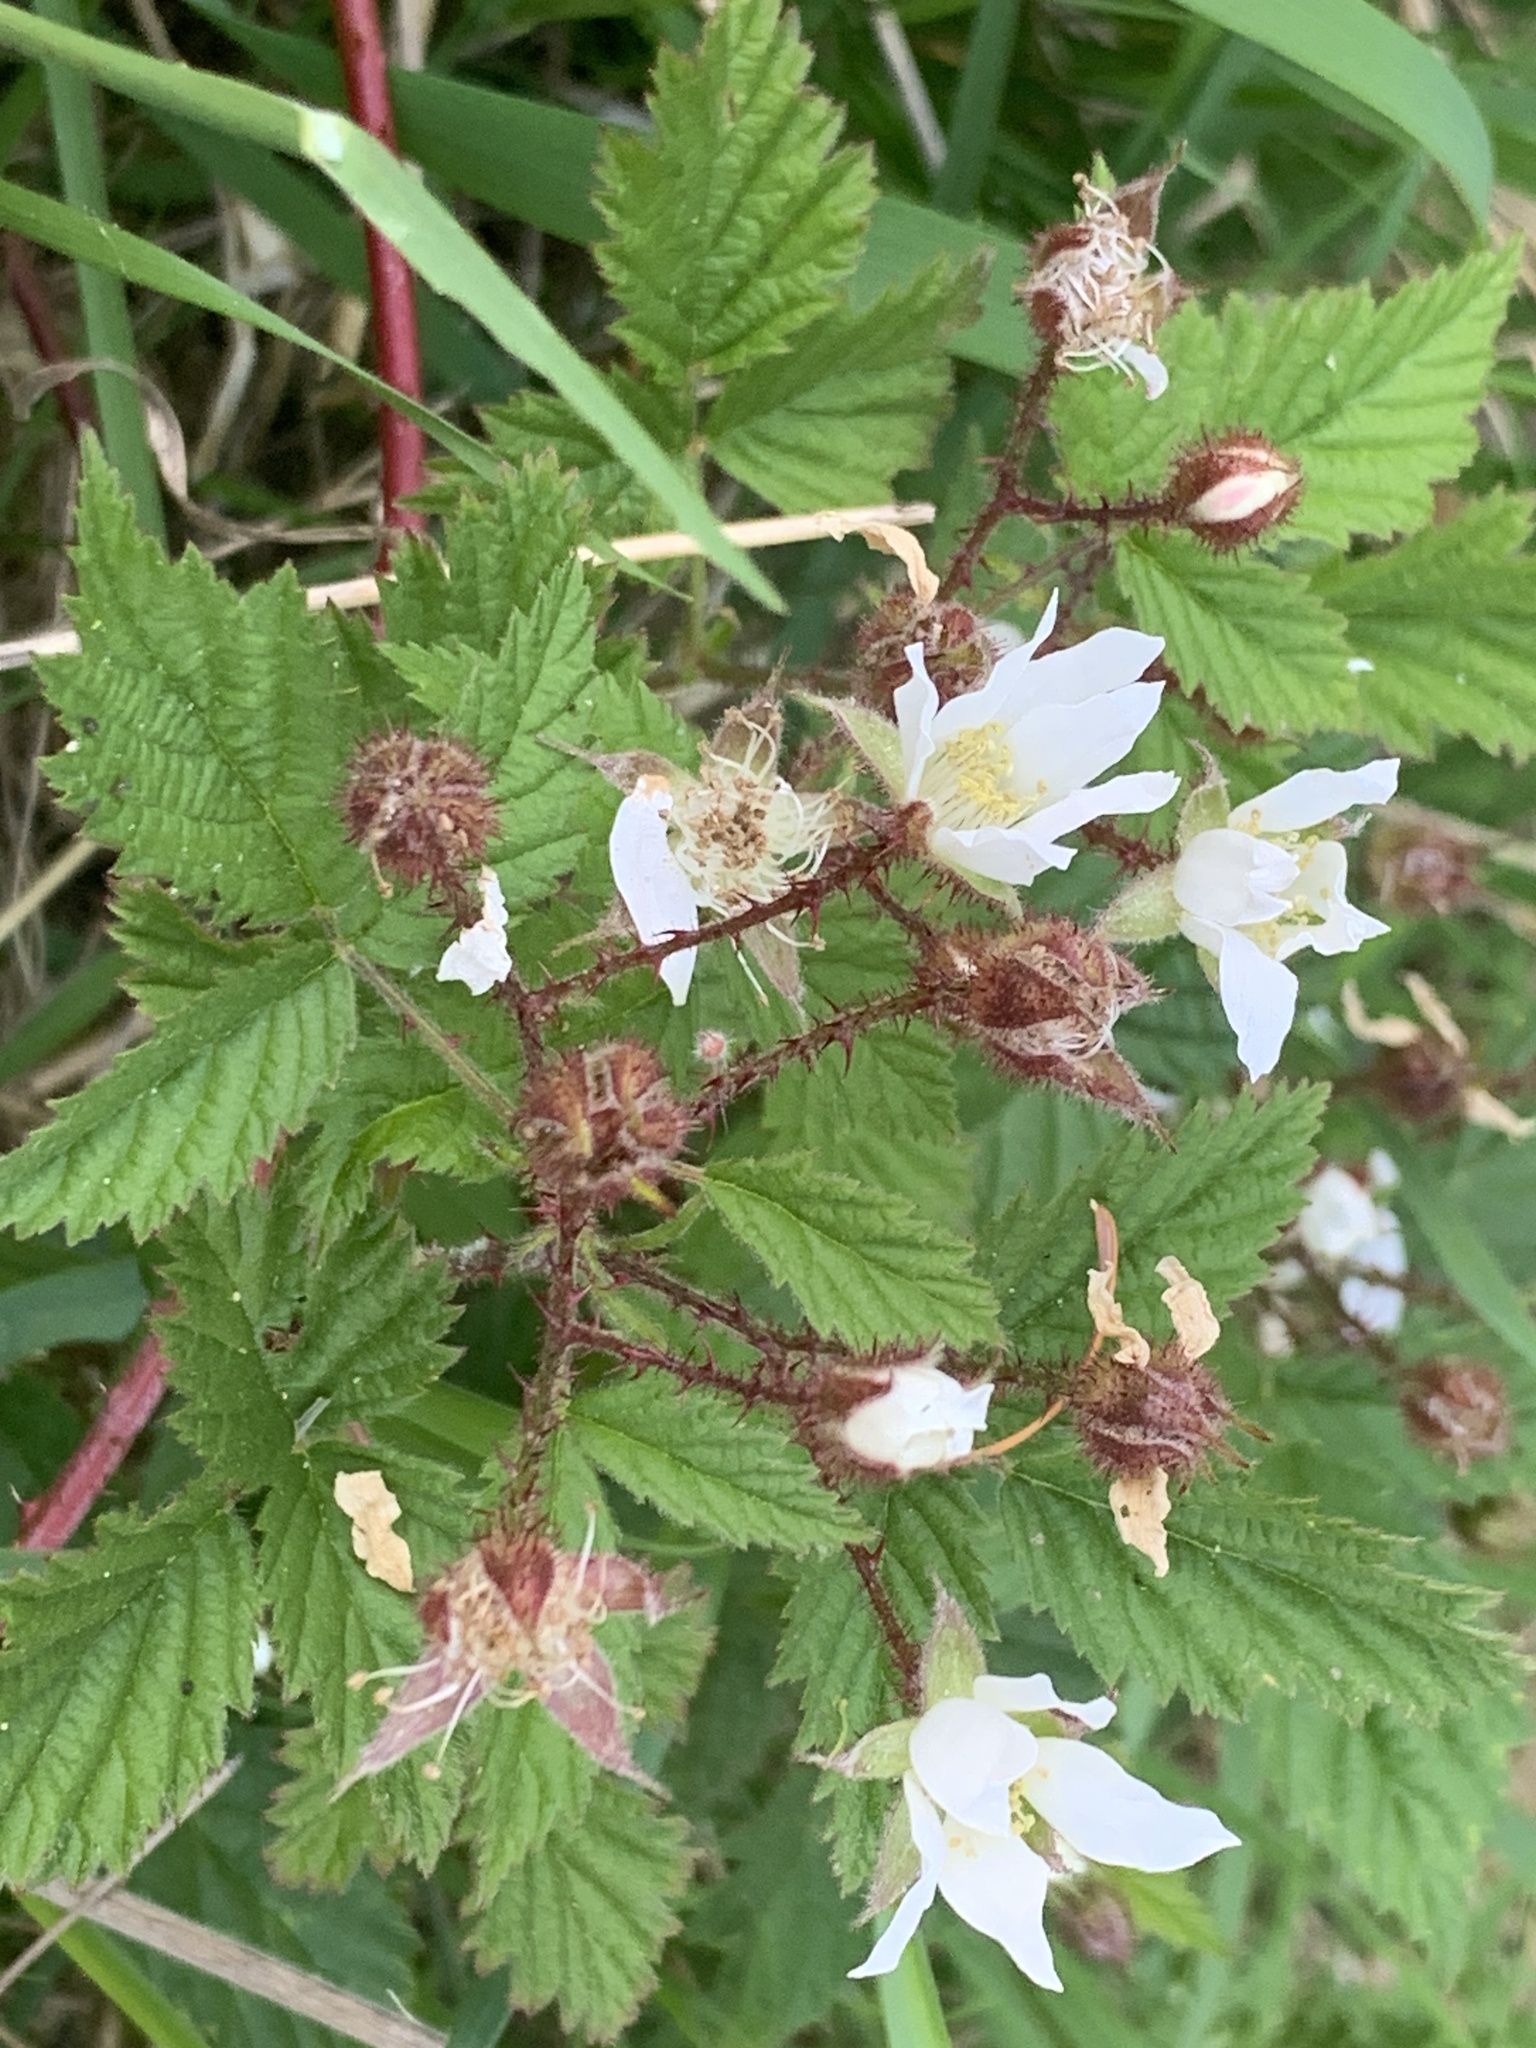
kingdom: Plantae
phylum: Tracheophyta
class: Magnoliopsida
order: Rosales
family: Rosaceae
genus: Rubus
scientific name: Rubus ursinus
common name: Pacific blackberry
